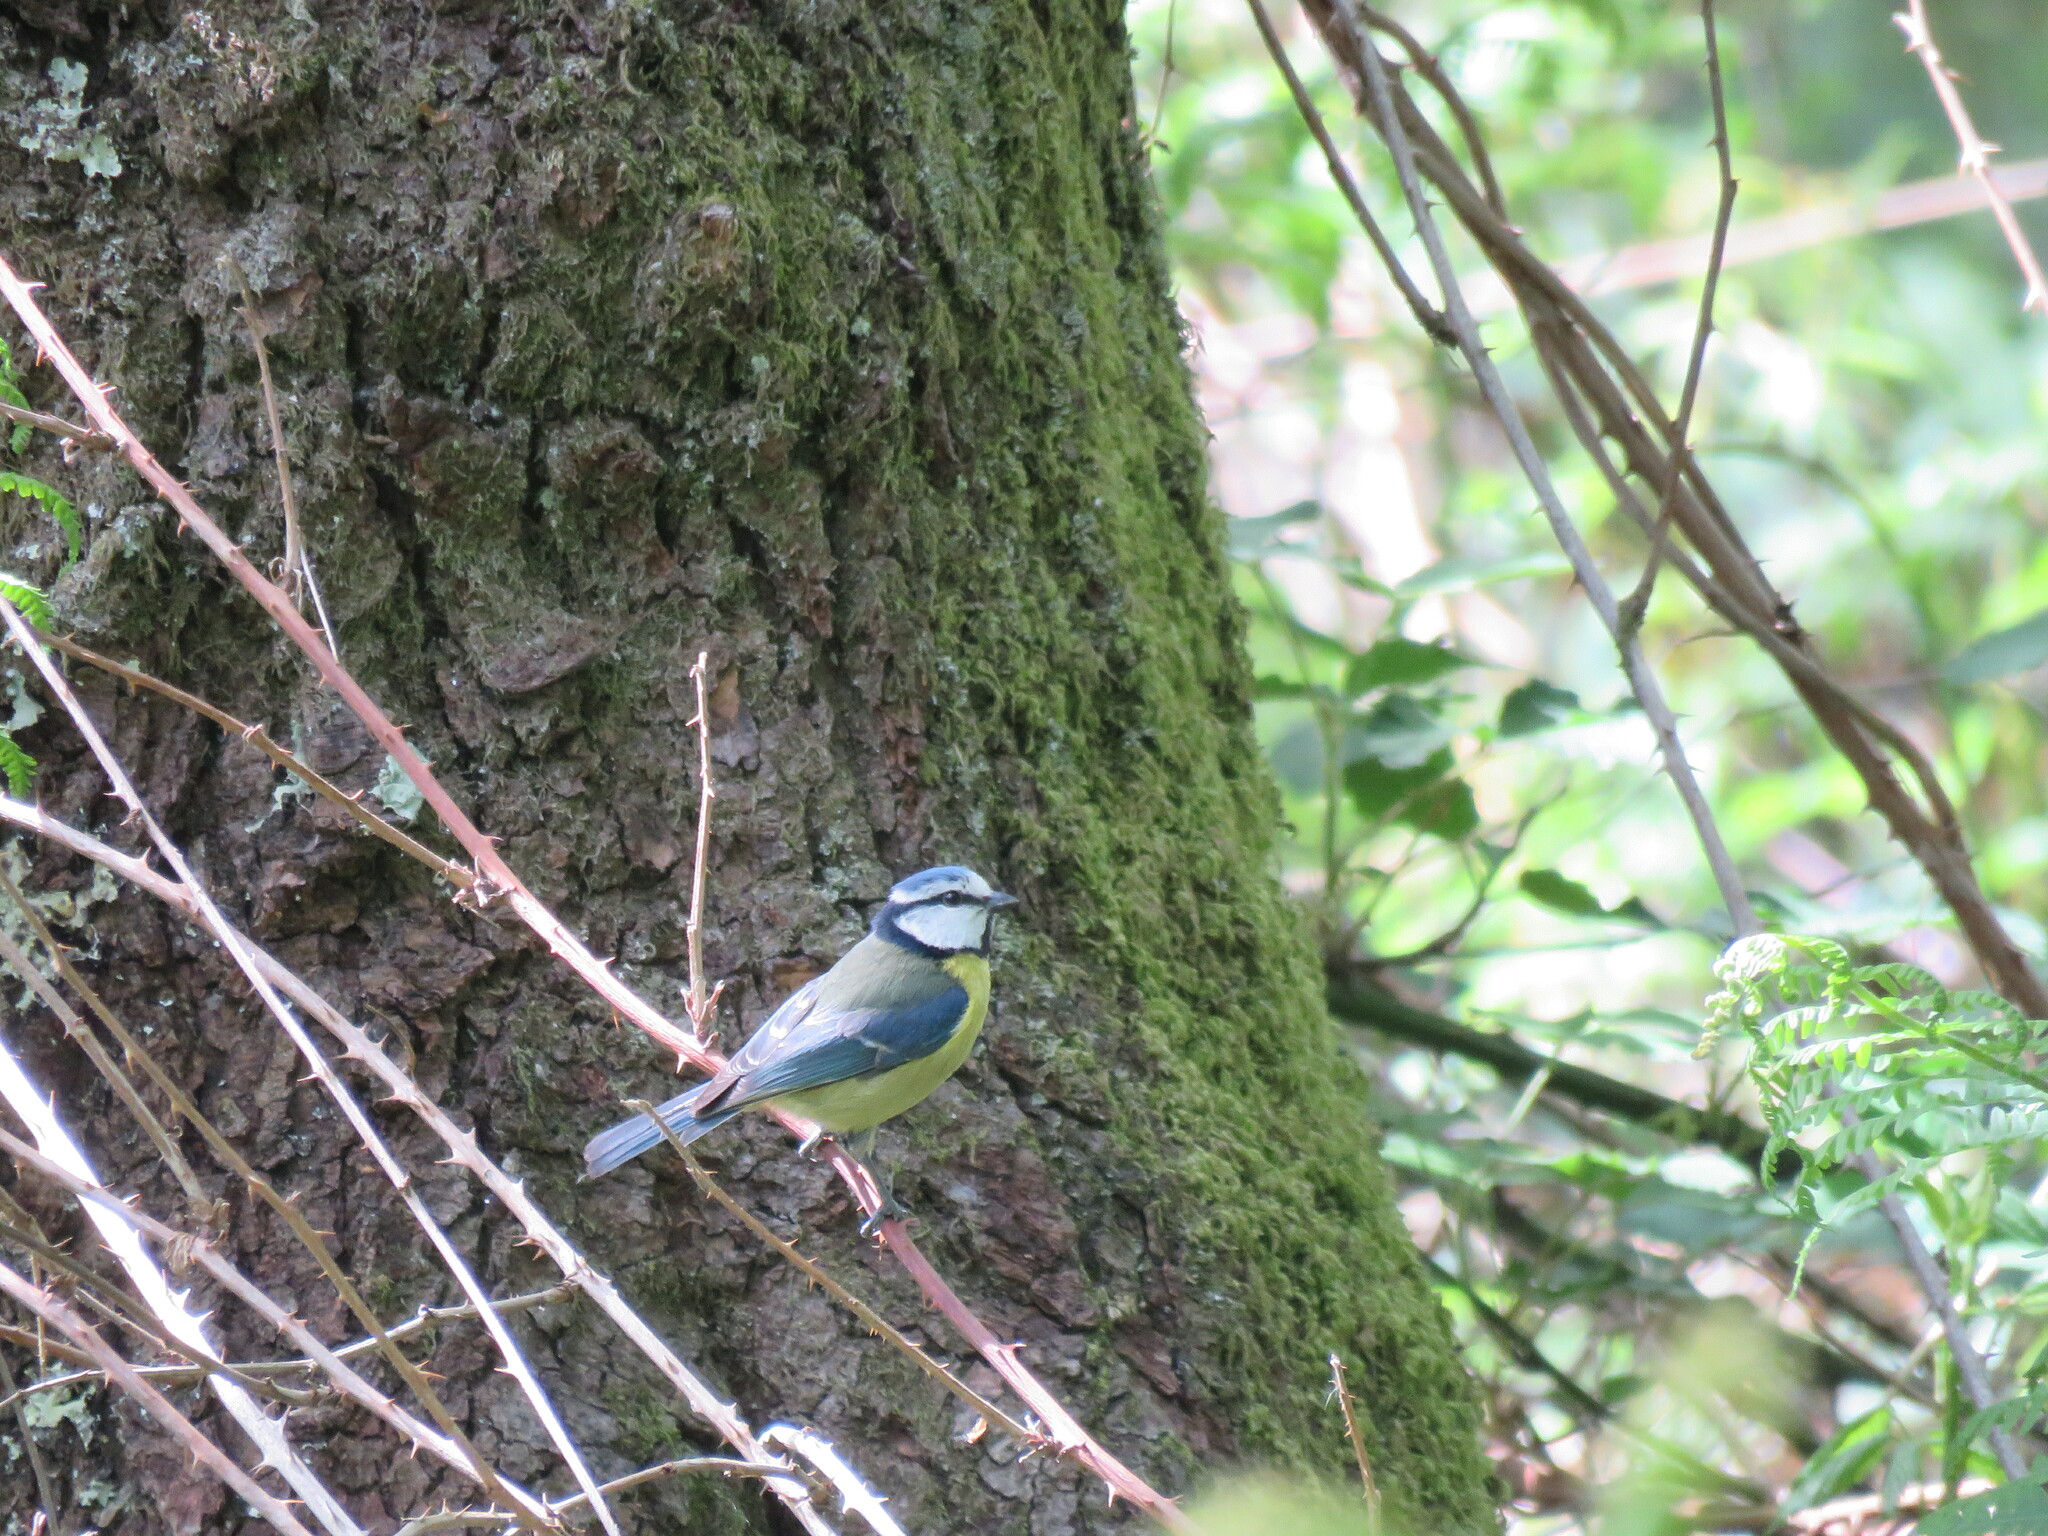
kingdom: Animalia
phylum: Chordata
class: Aves
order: Passeriformes
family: Paridae
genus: Cyanistes
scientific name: Cyanistes caeruleus
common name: Eurasian blue tit
